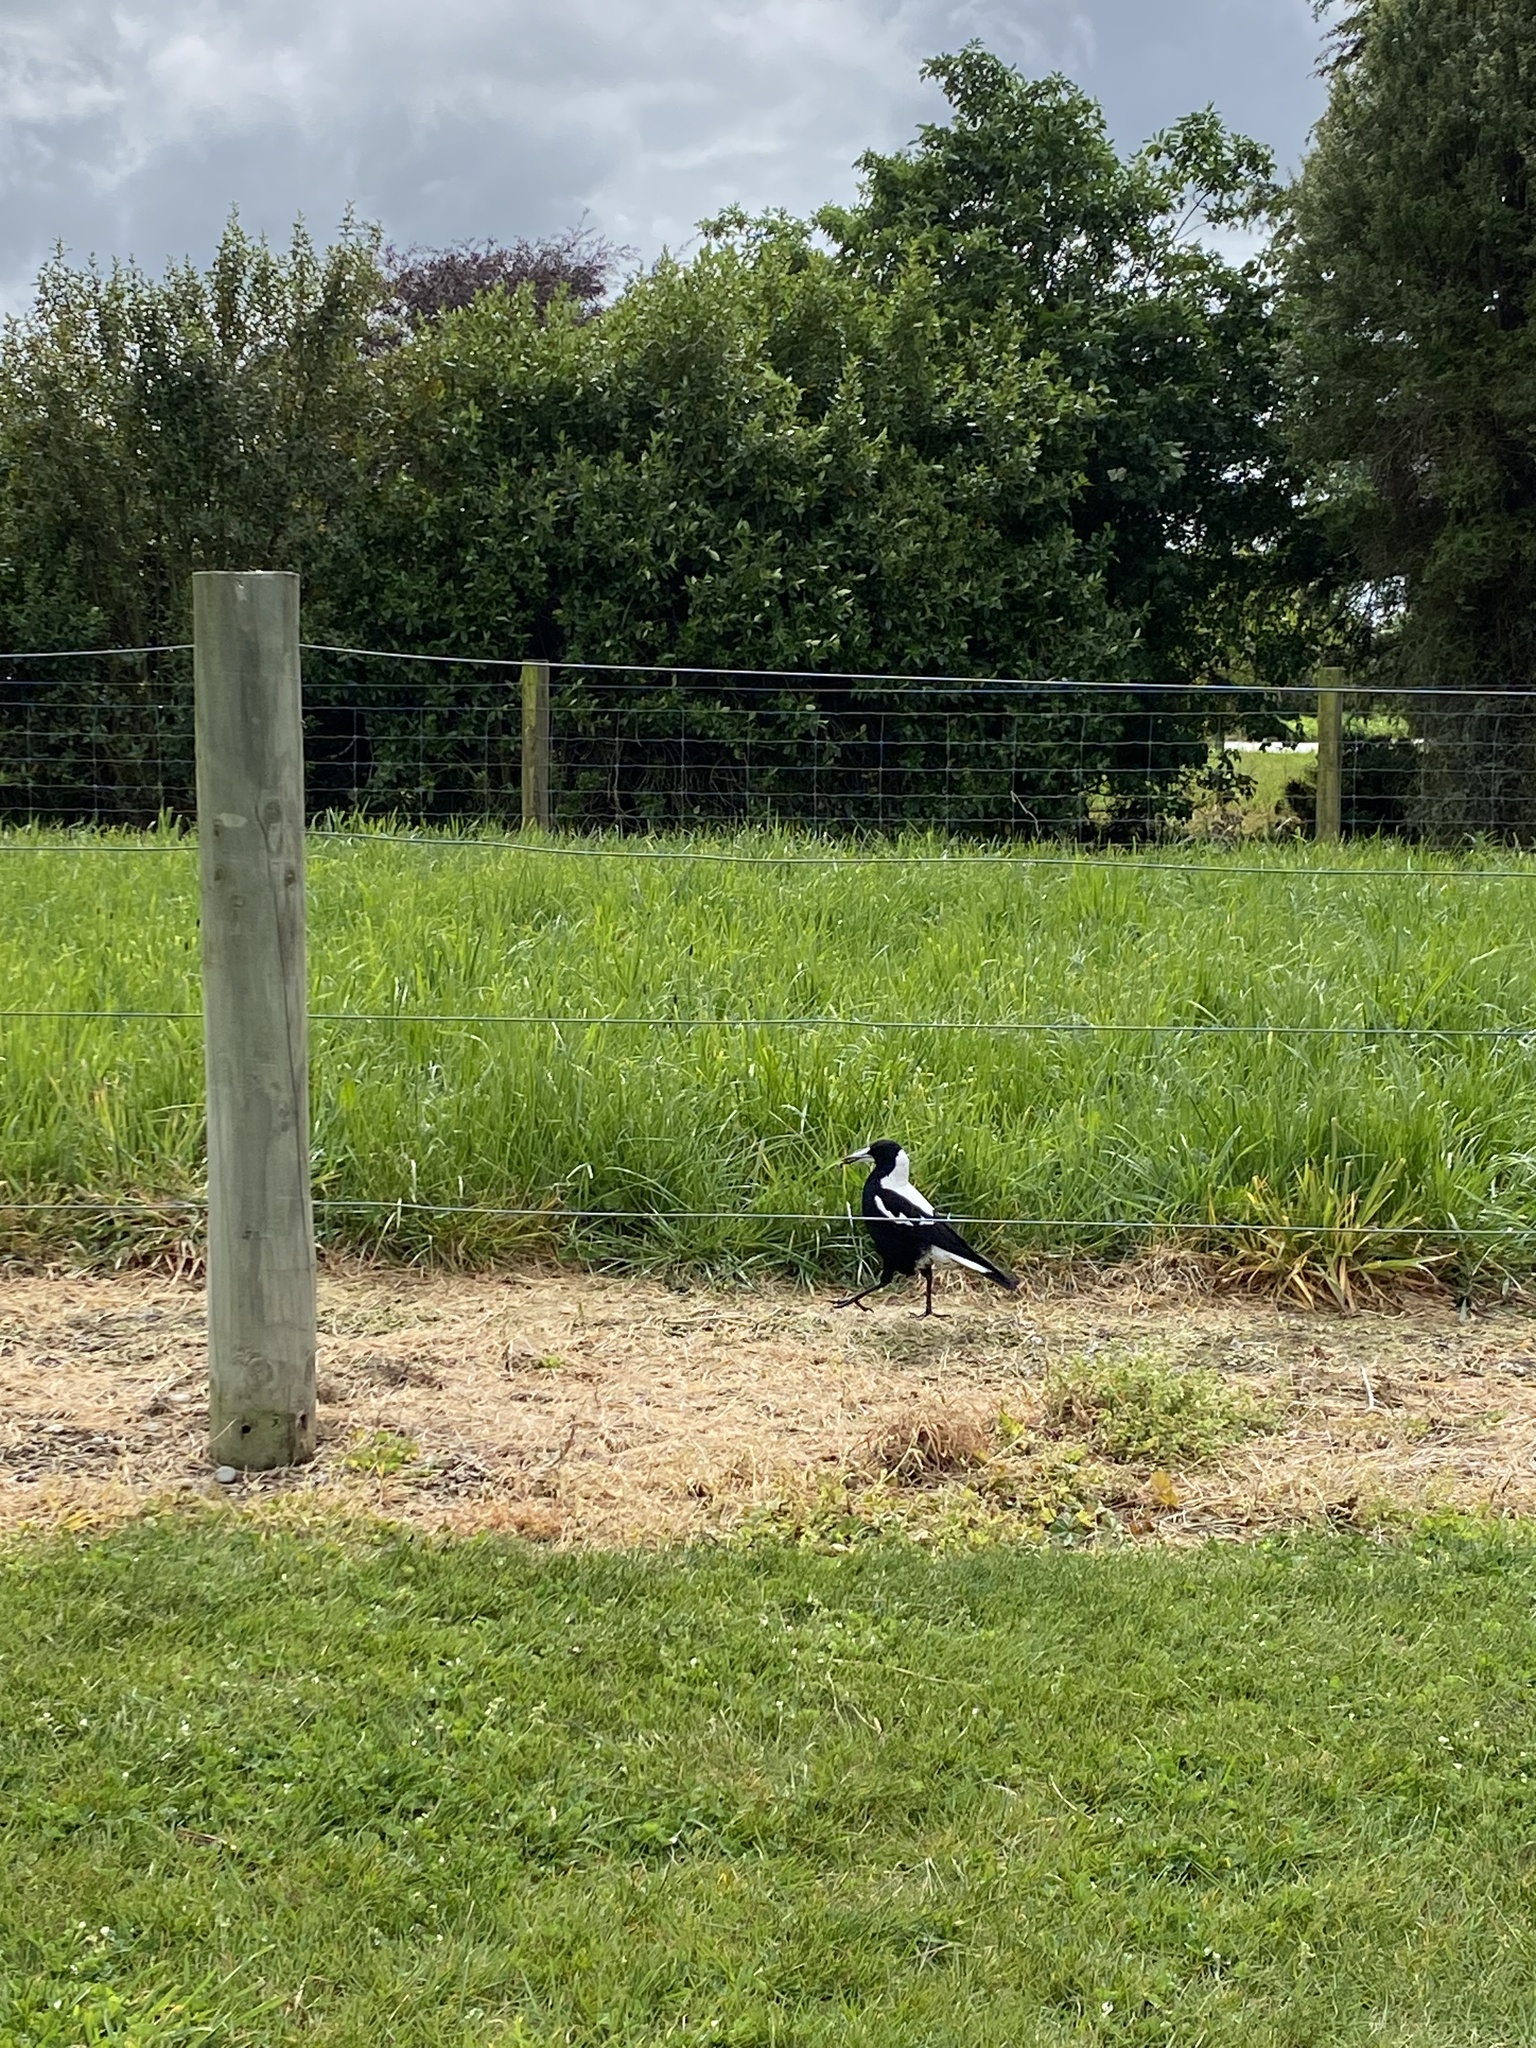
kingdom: Animalia
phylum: Chordata
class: Aves
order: Passeriformes
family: Cracticidae
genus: Gymnorhina
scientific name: Gymnorhina tibicen
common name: Australian magpie
